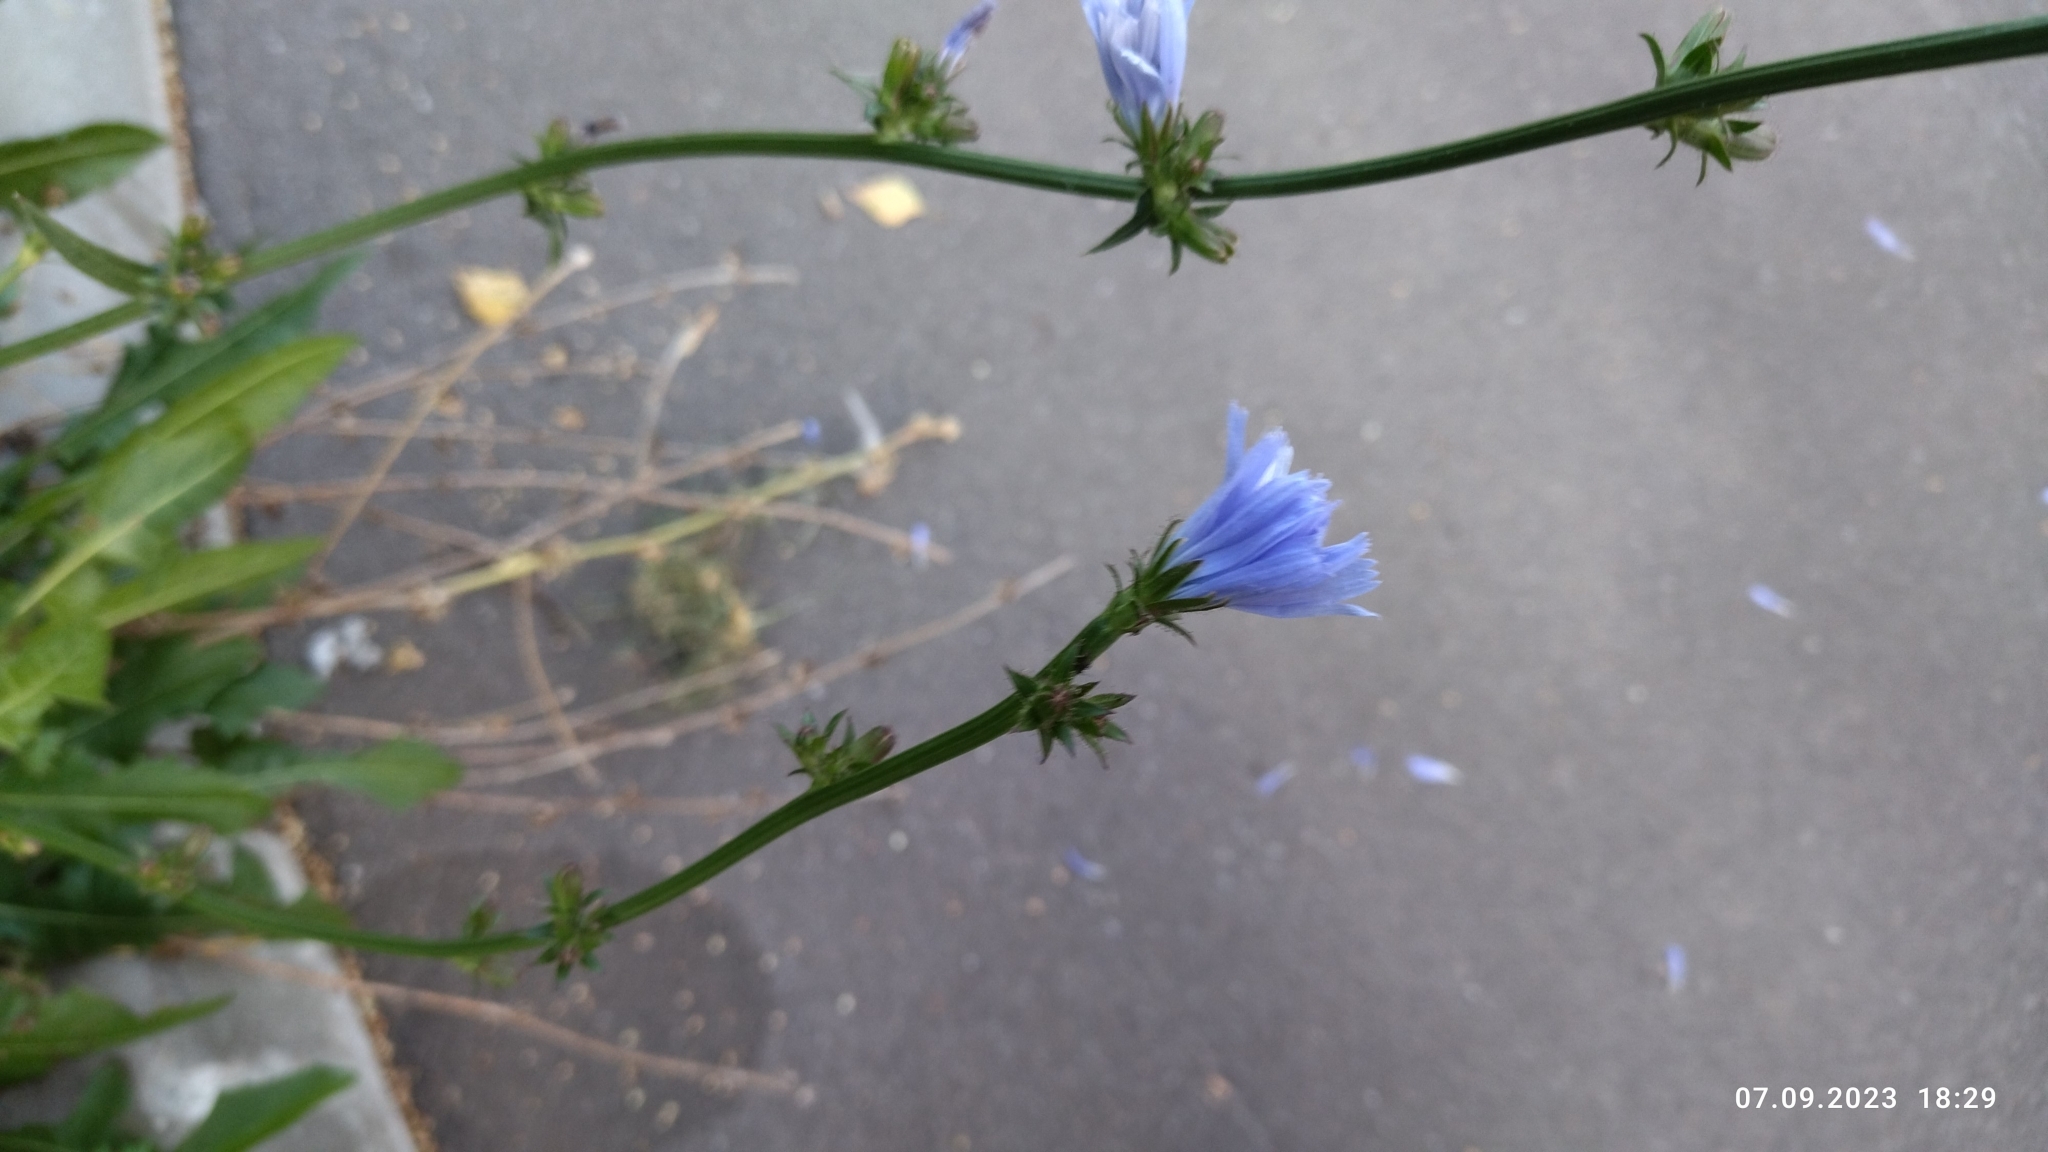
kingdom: Plantae
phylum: Tracheophyta
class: Magnoliopsida
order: Asterales
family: Asteraceae
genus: Cichorium
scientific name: Cichorium intybus
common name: Chicory
